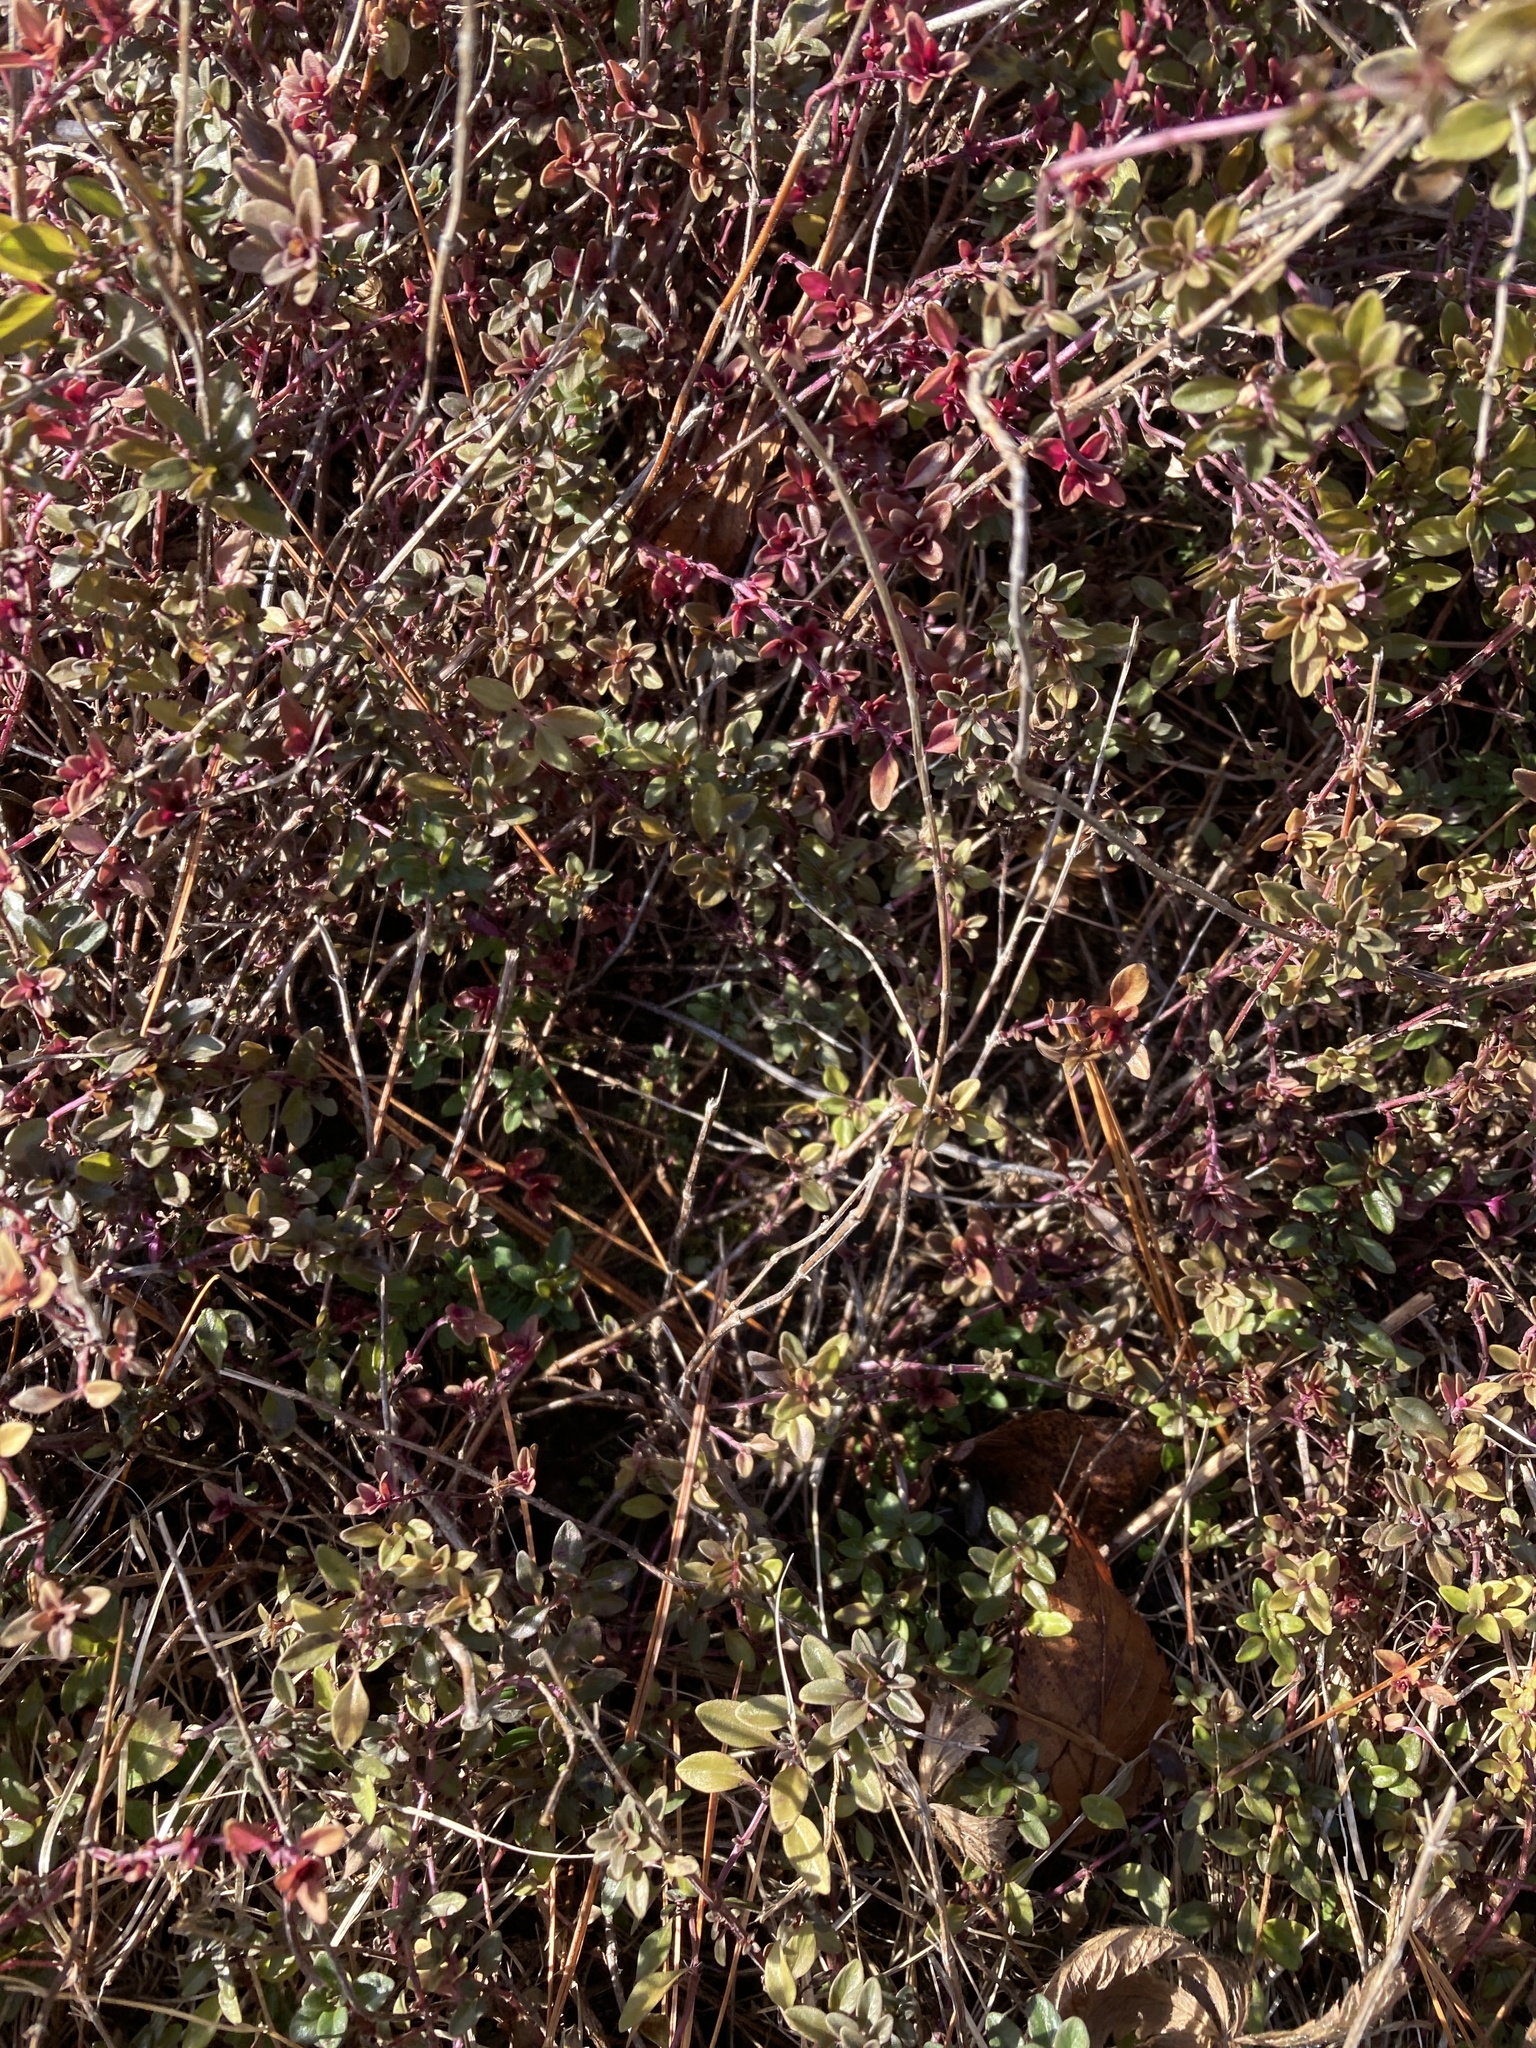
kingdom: Plantae
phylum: Tracheophyta
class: Magnoliopsida
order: Lamiales
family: Lamiaceae
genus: Thymus
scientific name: Thymus pulegioides
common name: Large thyme
